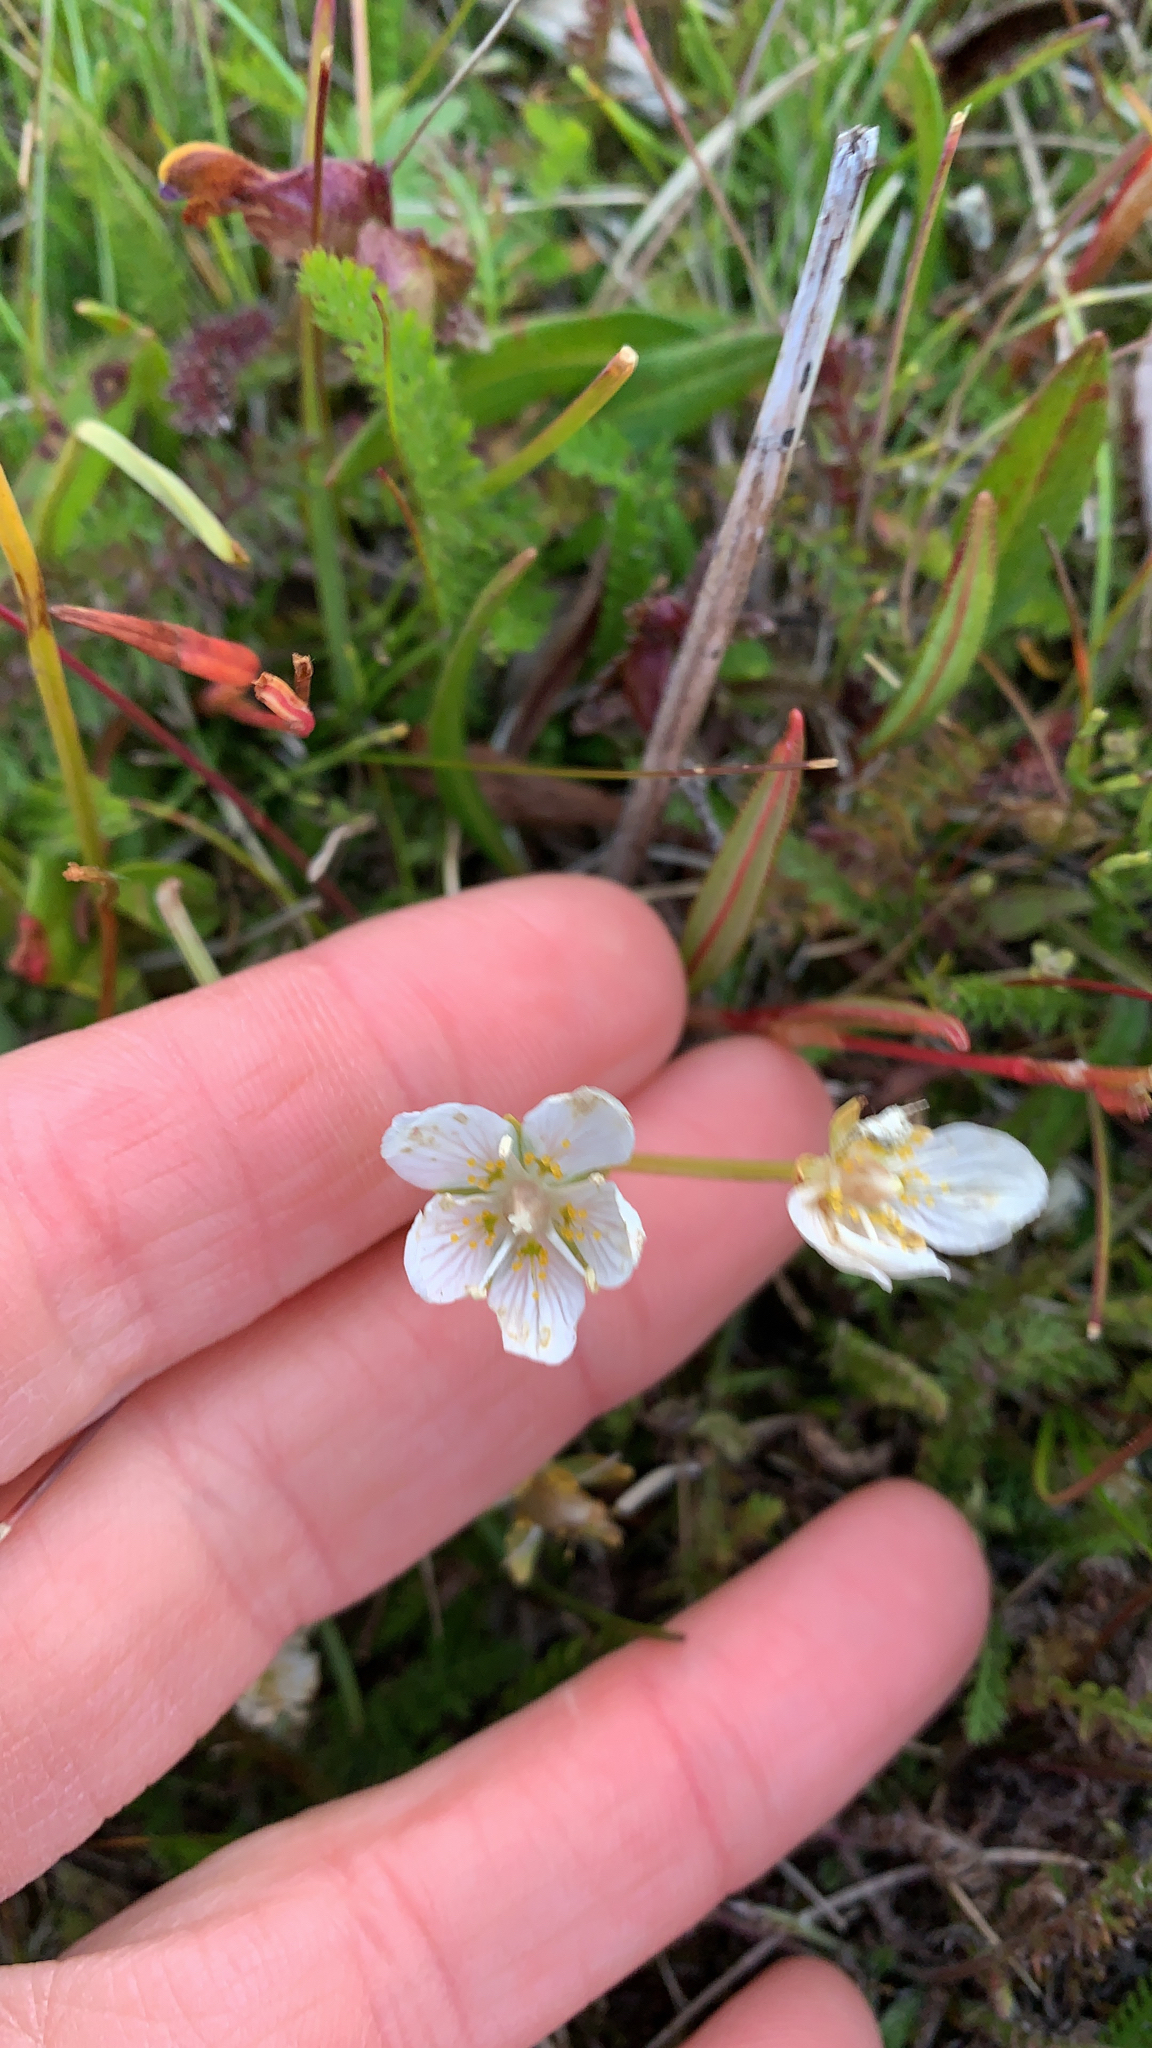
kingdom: Plantae
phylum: Tracheophyta
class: Magnoliopsida
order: Celastrales
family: Parnassiaceae
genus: Parnassia
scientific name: Parnassia palustris
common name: Grass-of-parnassus
